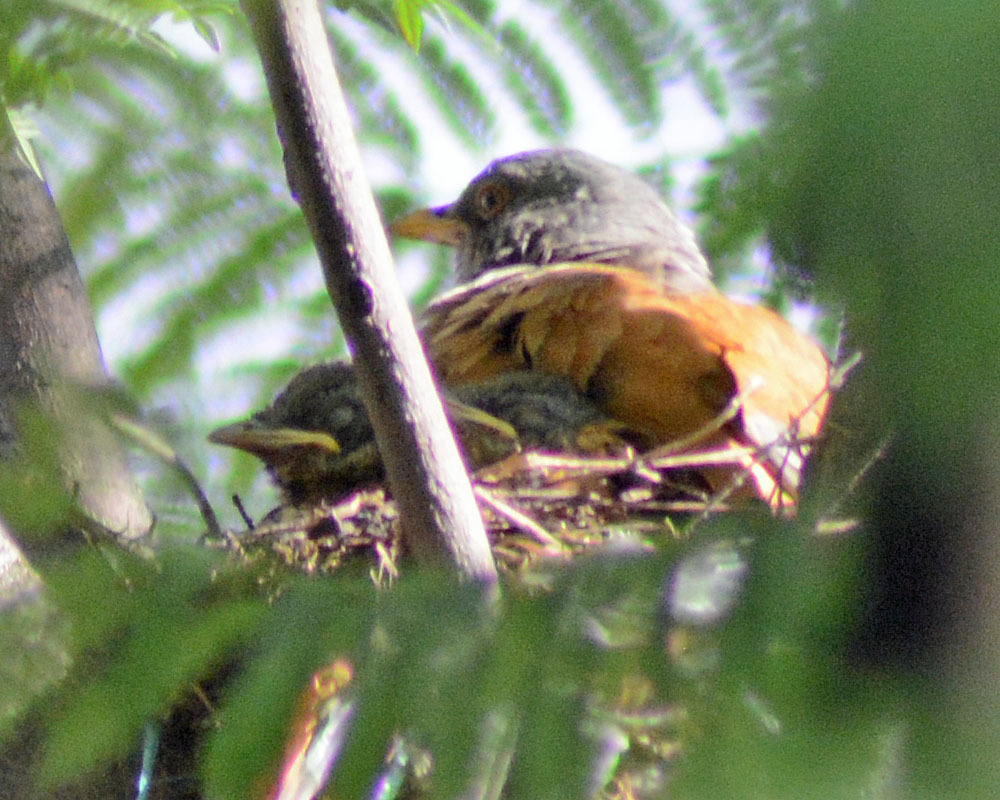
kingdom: Animalia
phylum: Chordata
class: Aves
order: Passeriformes
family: Turdidae
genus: Turdus
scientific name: Turdus rufopalliatus
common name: Rufous-backed robin
